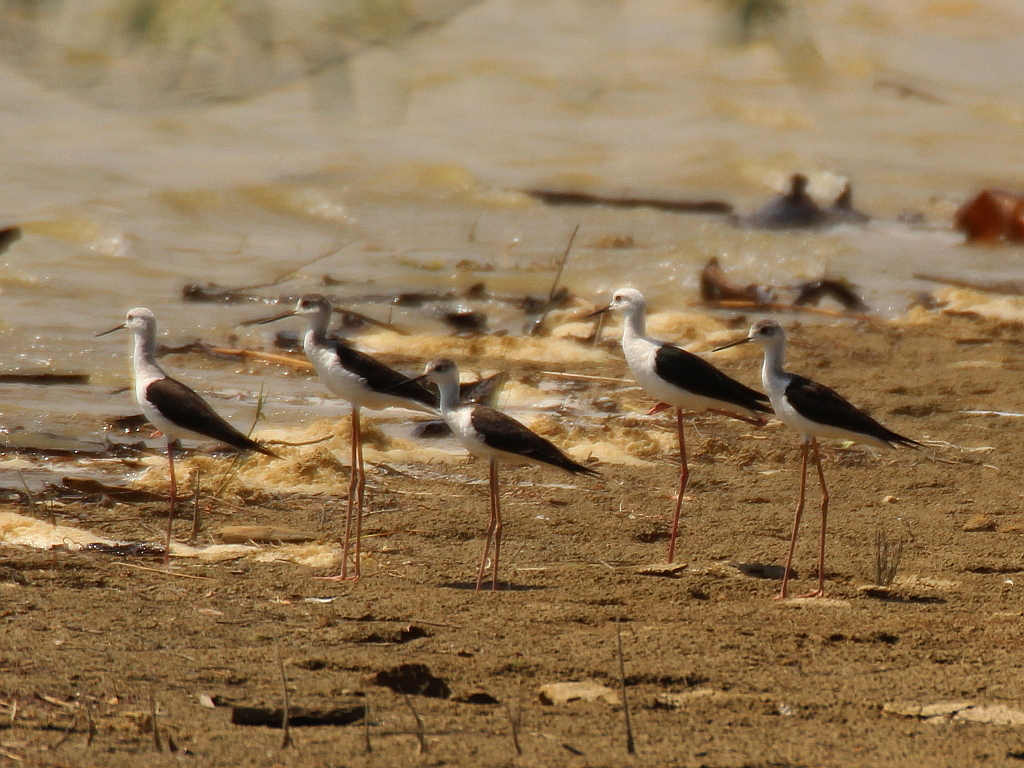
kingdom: Animalia
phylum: Chordata
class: Aves
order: Charadriiformes
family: Recurvirostridae
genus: Himantopus
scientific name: Himantopus himantopus
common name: Black-winged stilt
